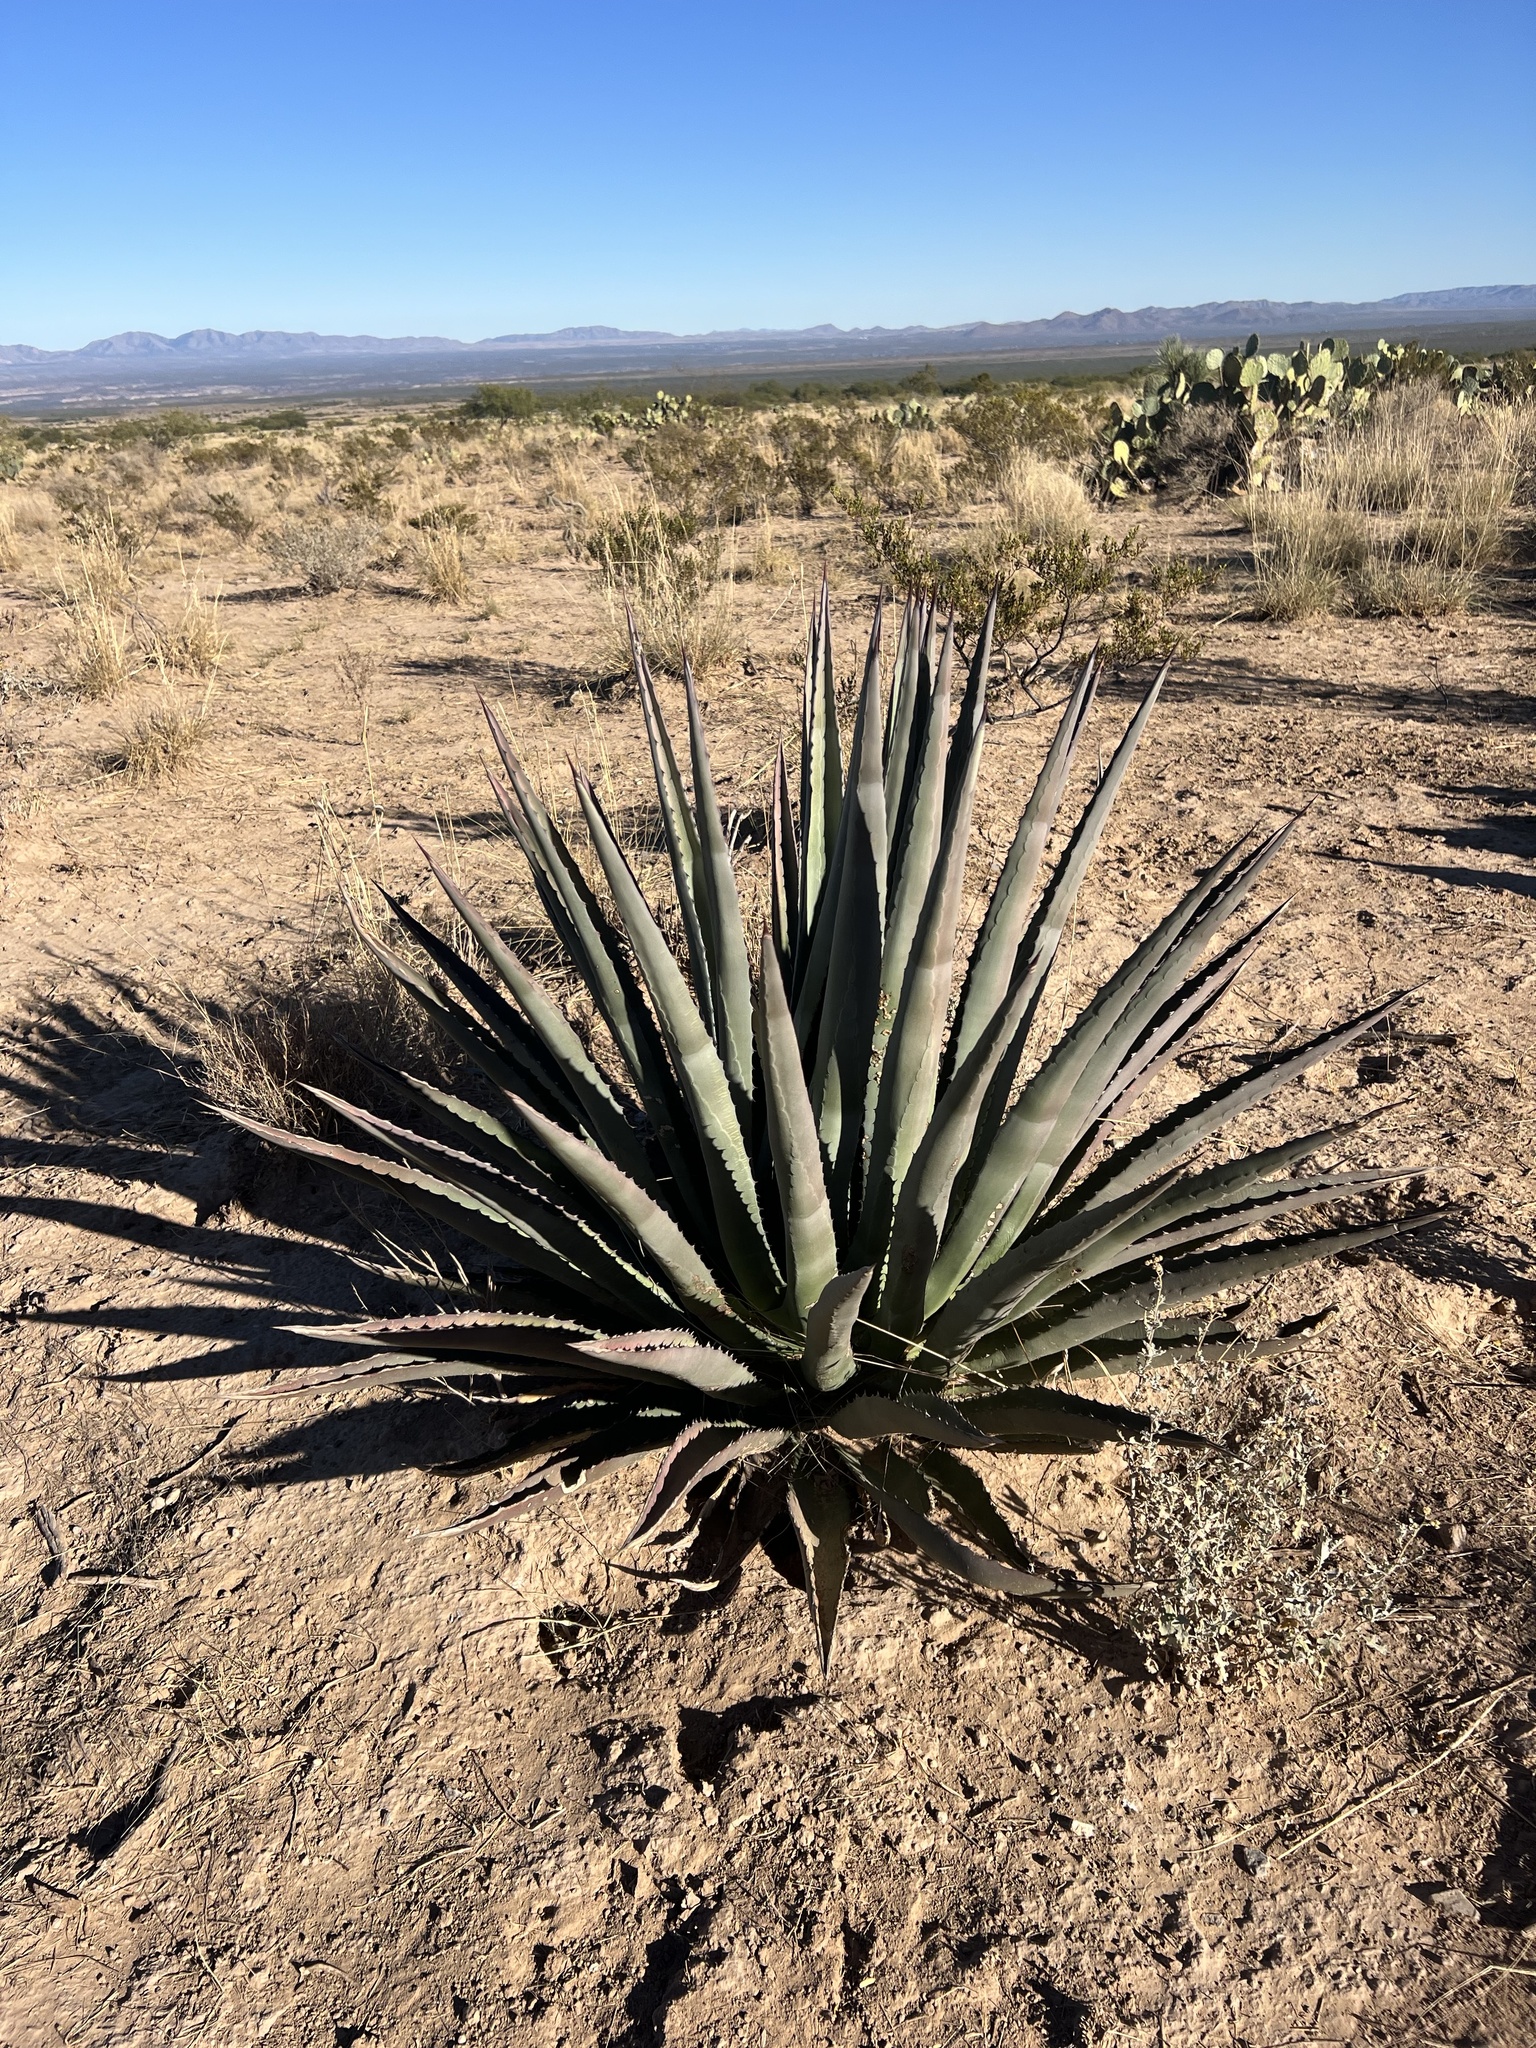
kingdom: Plantae
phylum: Tracheophyta
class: Liliopsida
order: Asparagales
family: Asparagaceae
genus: Agave
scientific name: Agave palmeri
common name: Palmer agave
